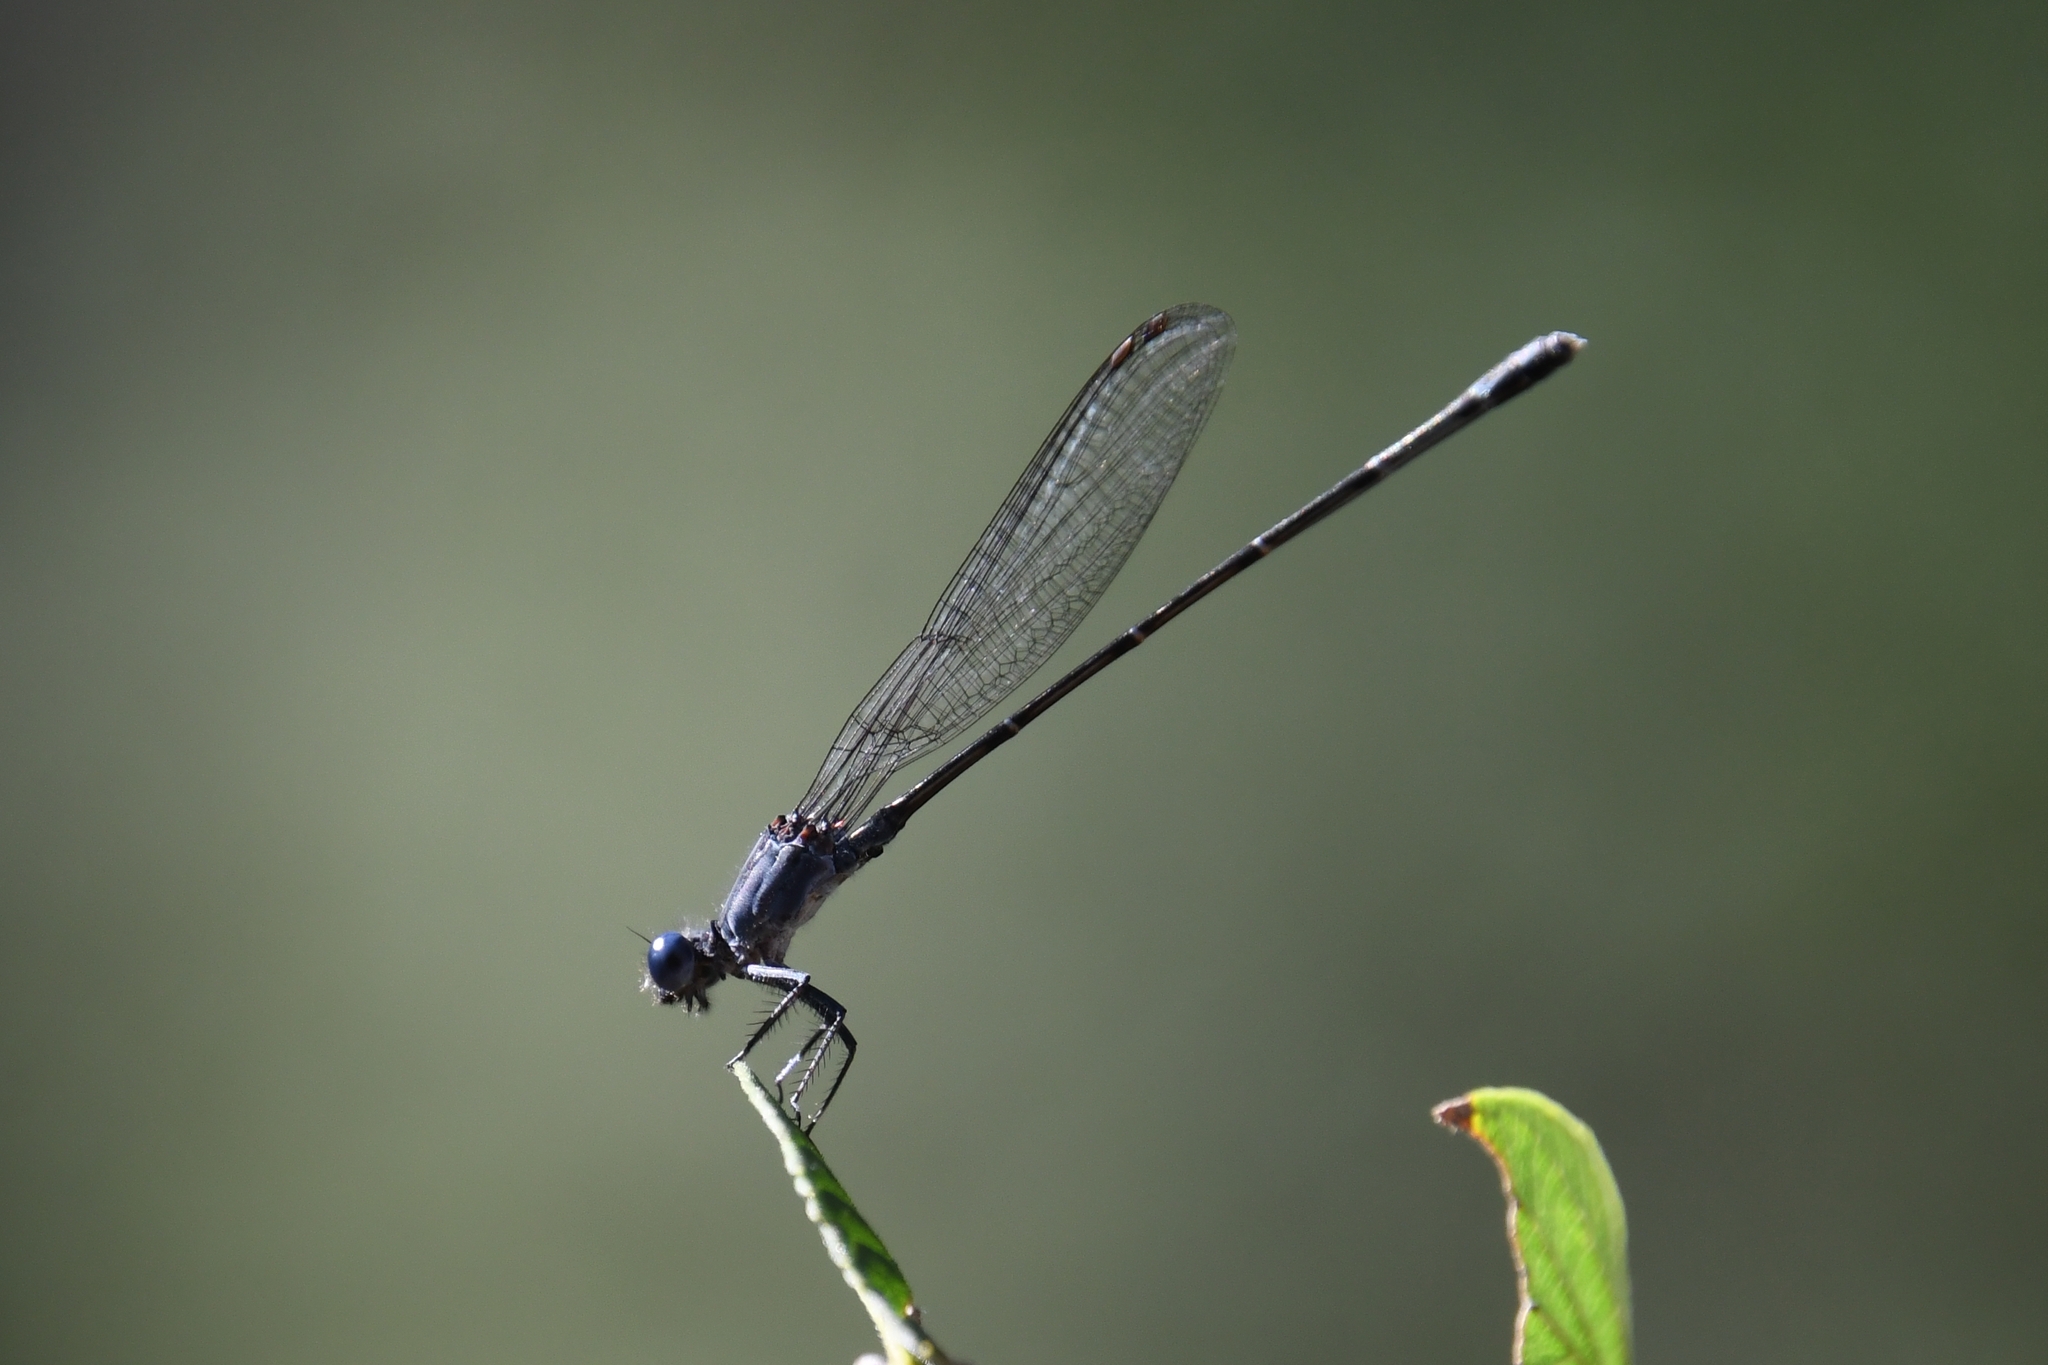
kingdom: Animalia
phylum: Arthropoda
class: Insecta
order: Odonata
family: Coenagrionidae
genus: Argia
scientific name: Argia translata
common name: Dusky dancer
